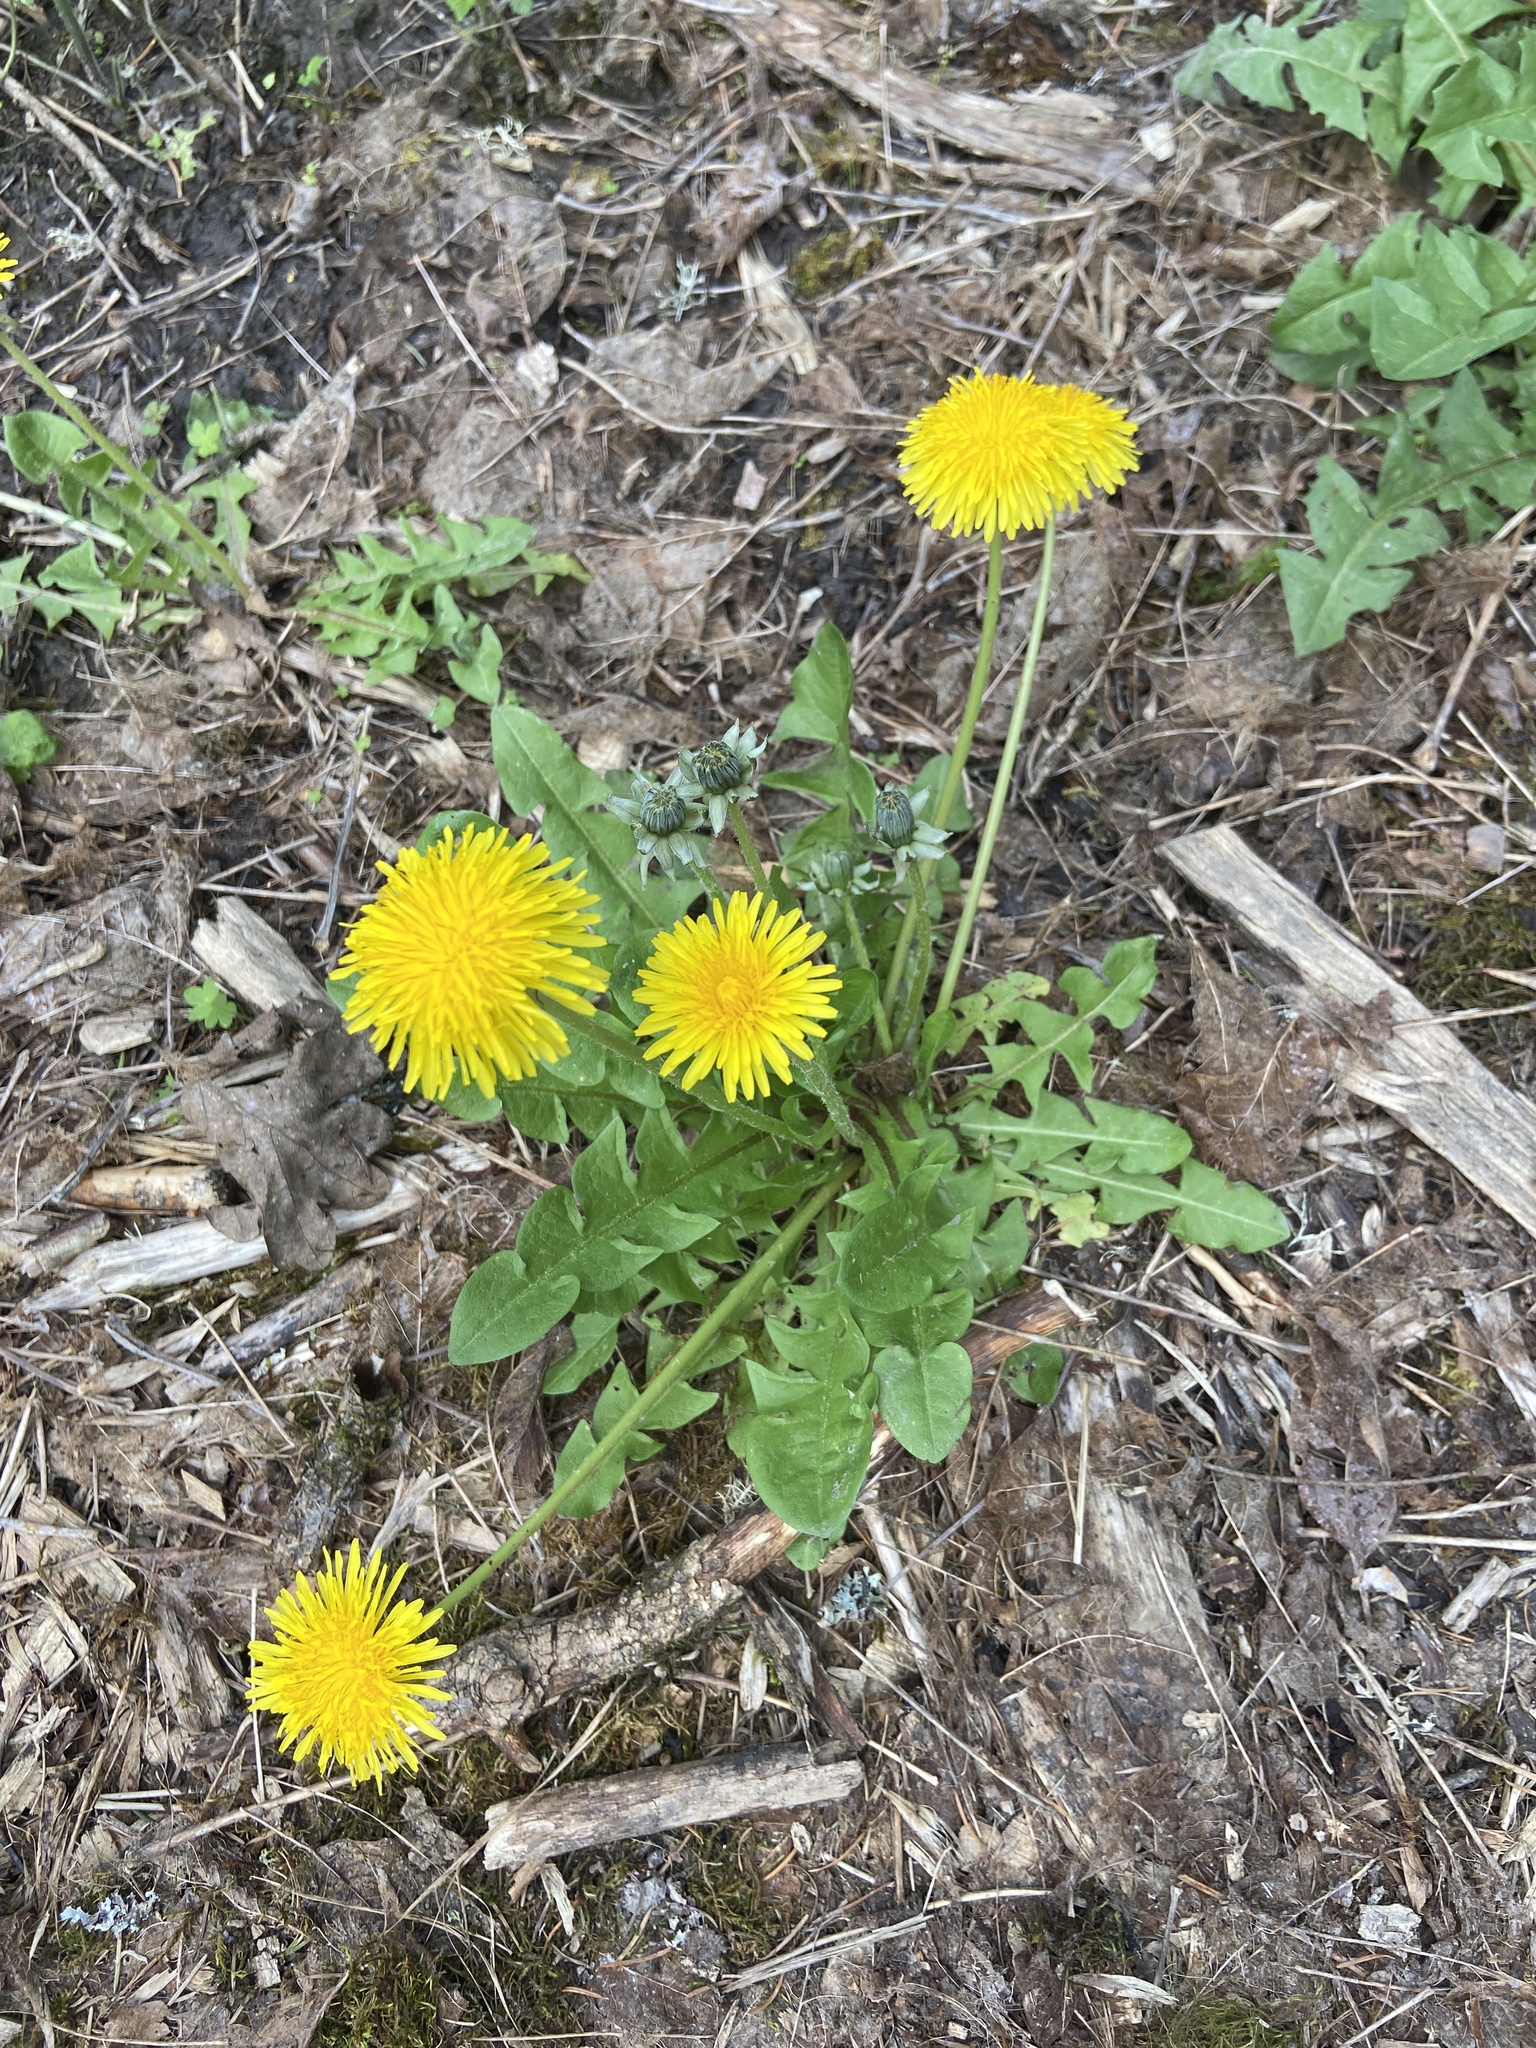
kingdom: Plantae
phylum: Tracheophyta
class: Magnoliopsida
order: Asterales
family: Asteraceae
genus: Taraxacum
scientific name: Taraxacum officinale
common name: Common dandelion
